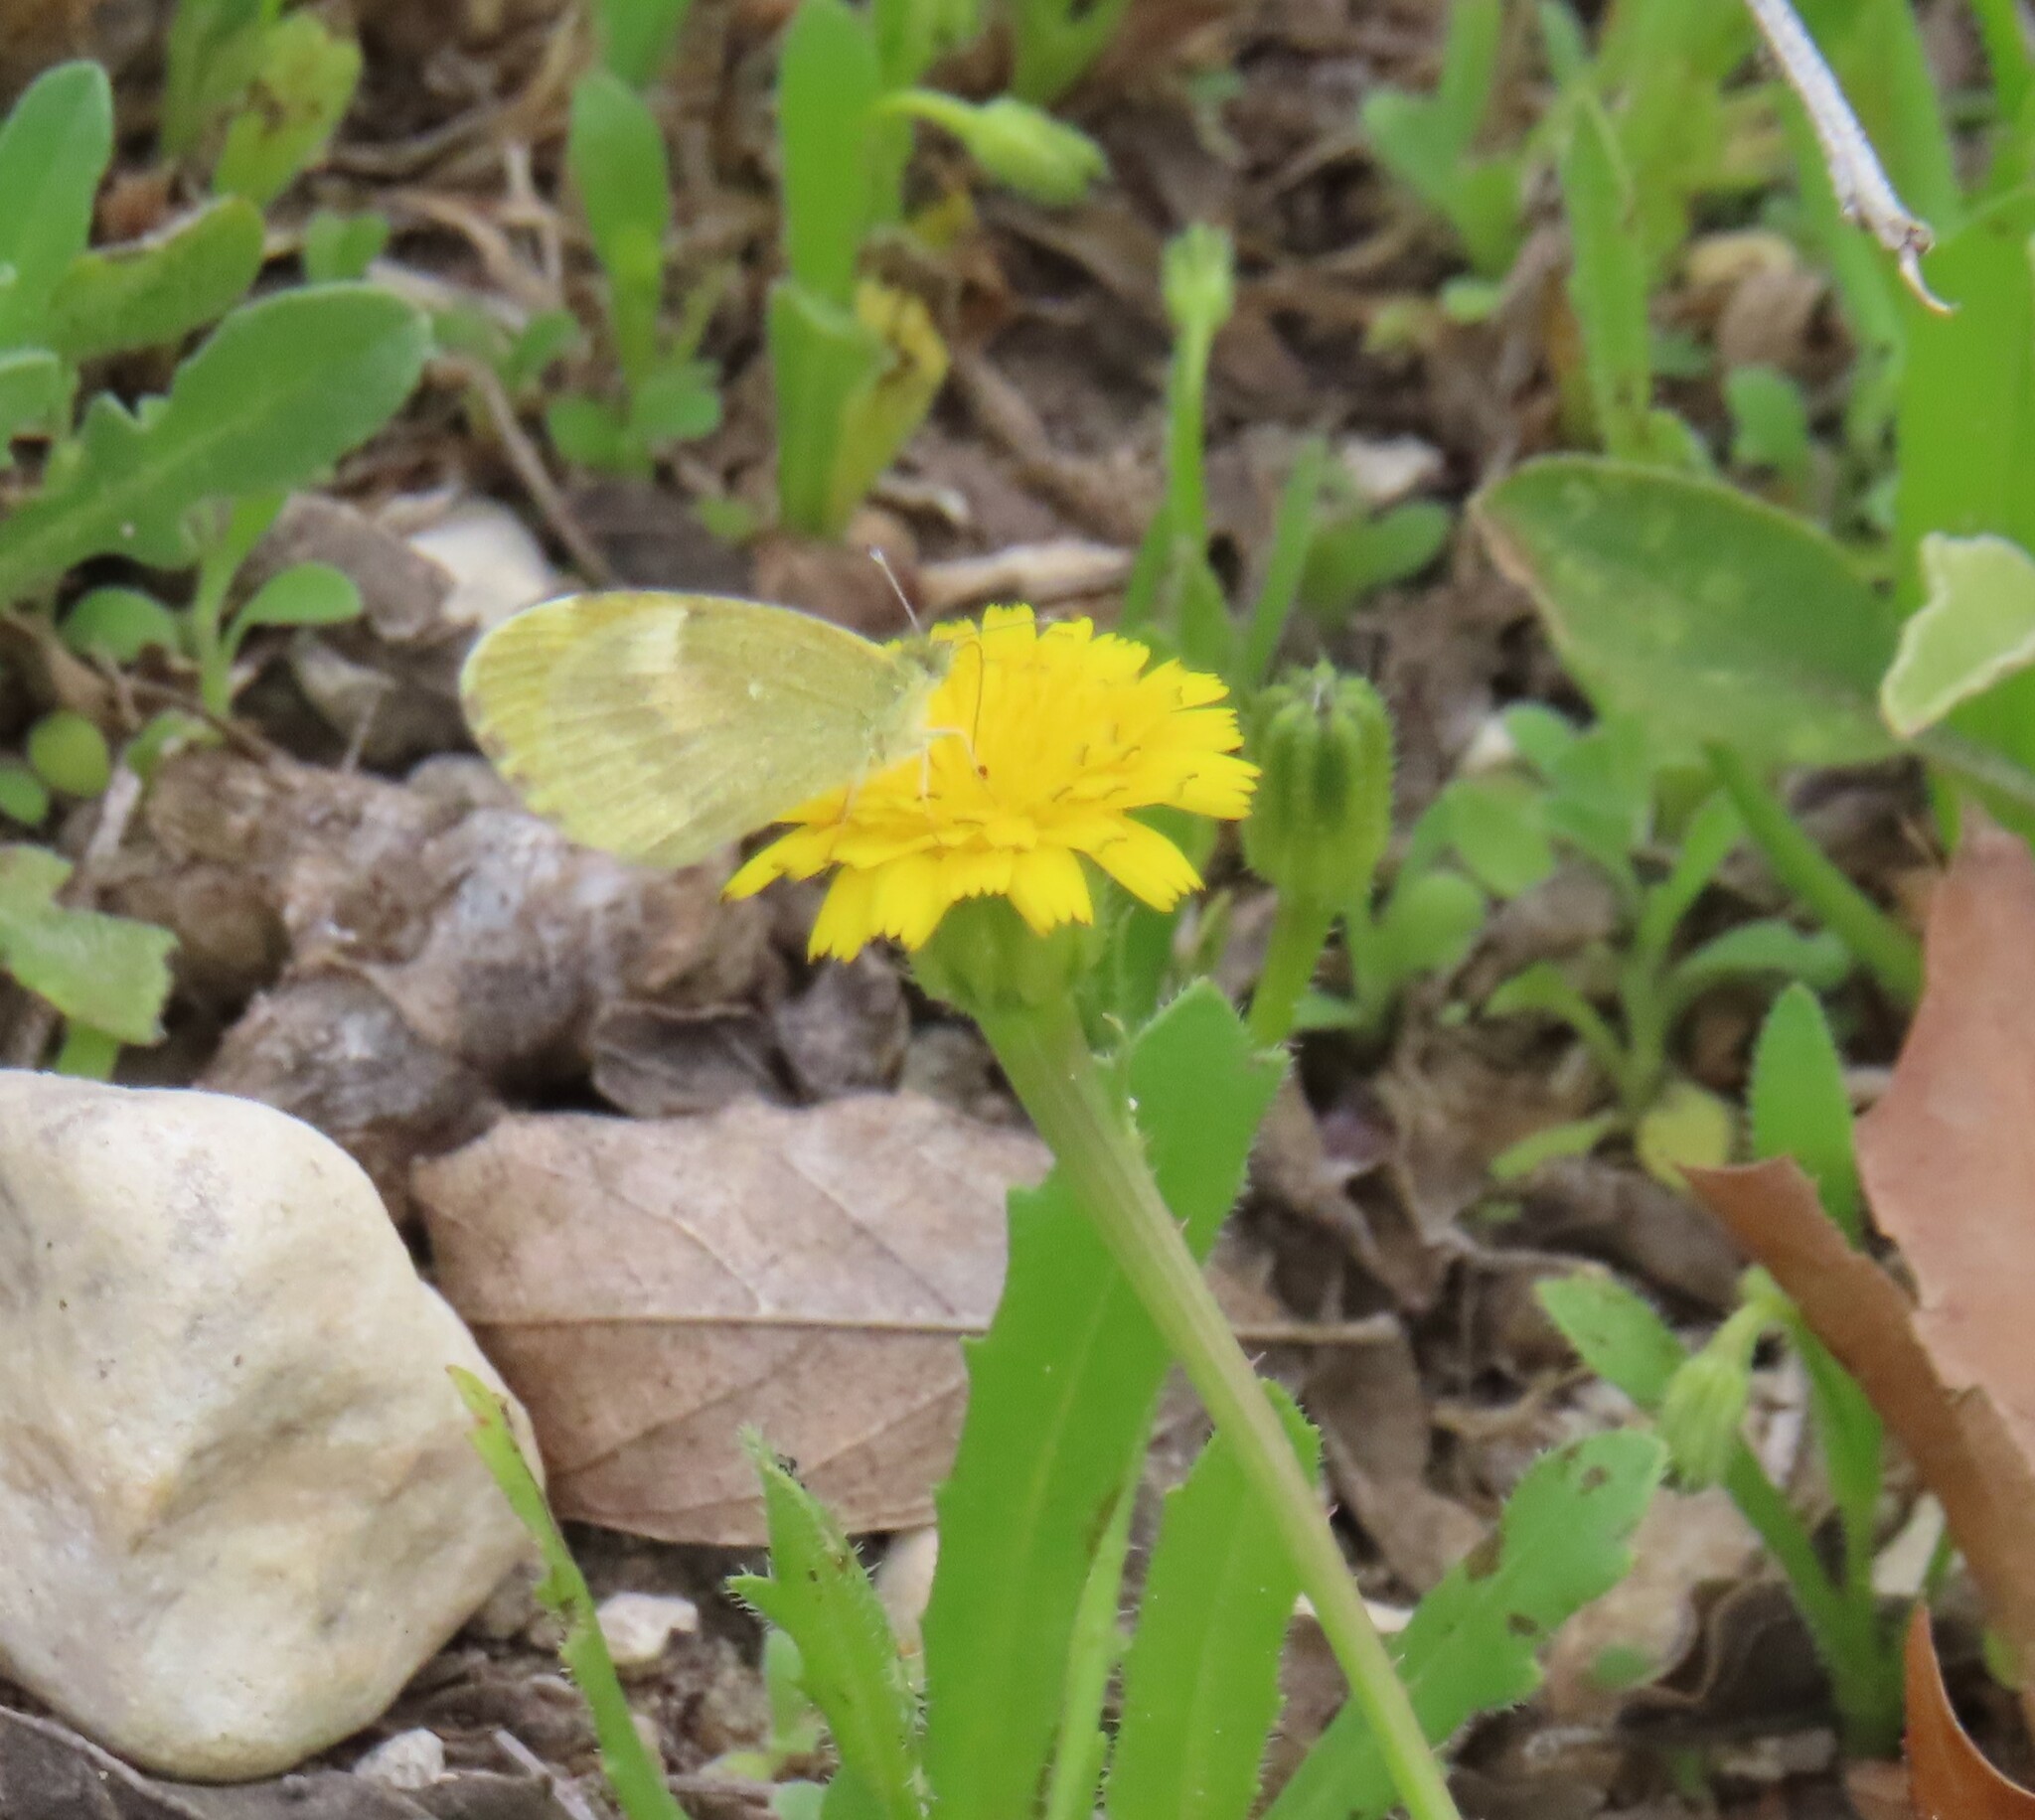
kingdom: Animalia
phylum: Arthropoda
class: Insecta
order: Lepidoptera
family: Pieridae
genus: Nathalis
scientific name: Nathalis iole
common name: Dainty sulphur
